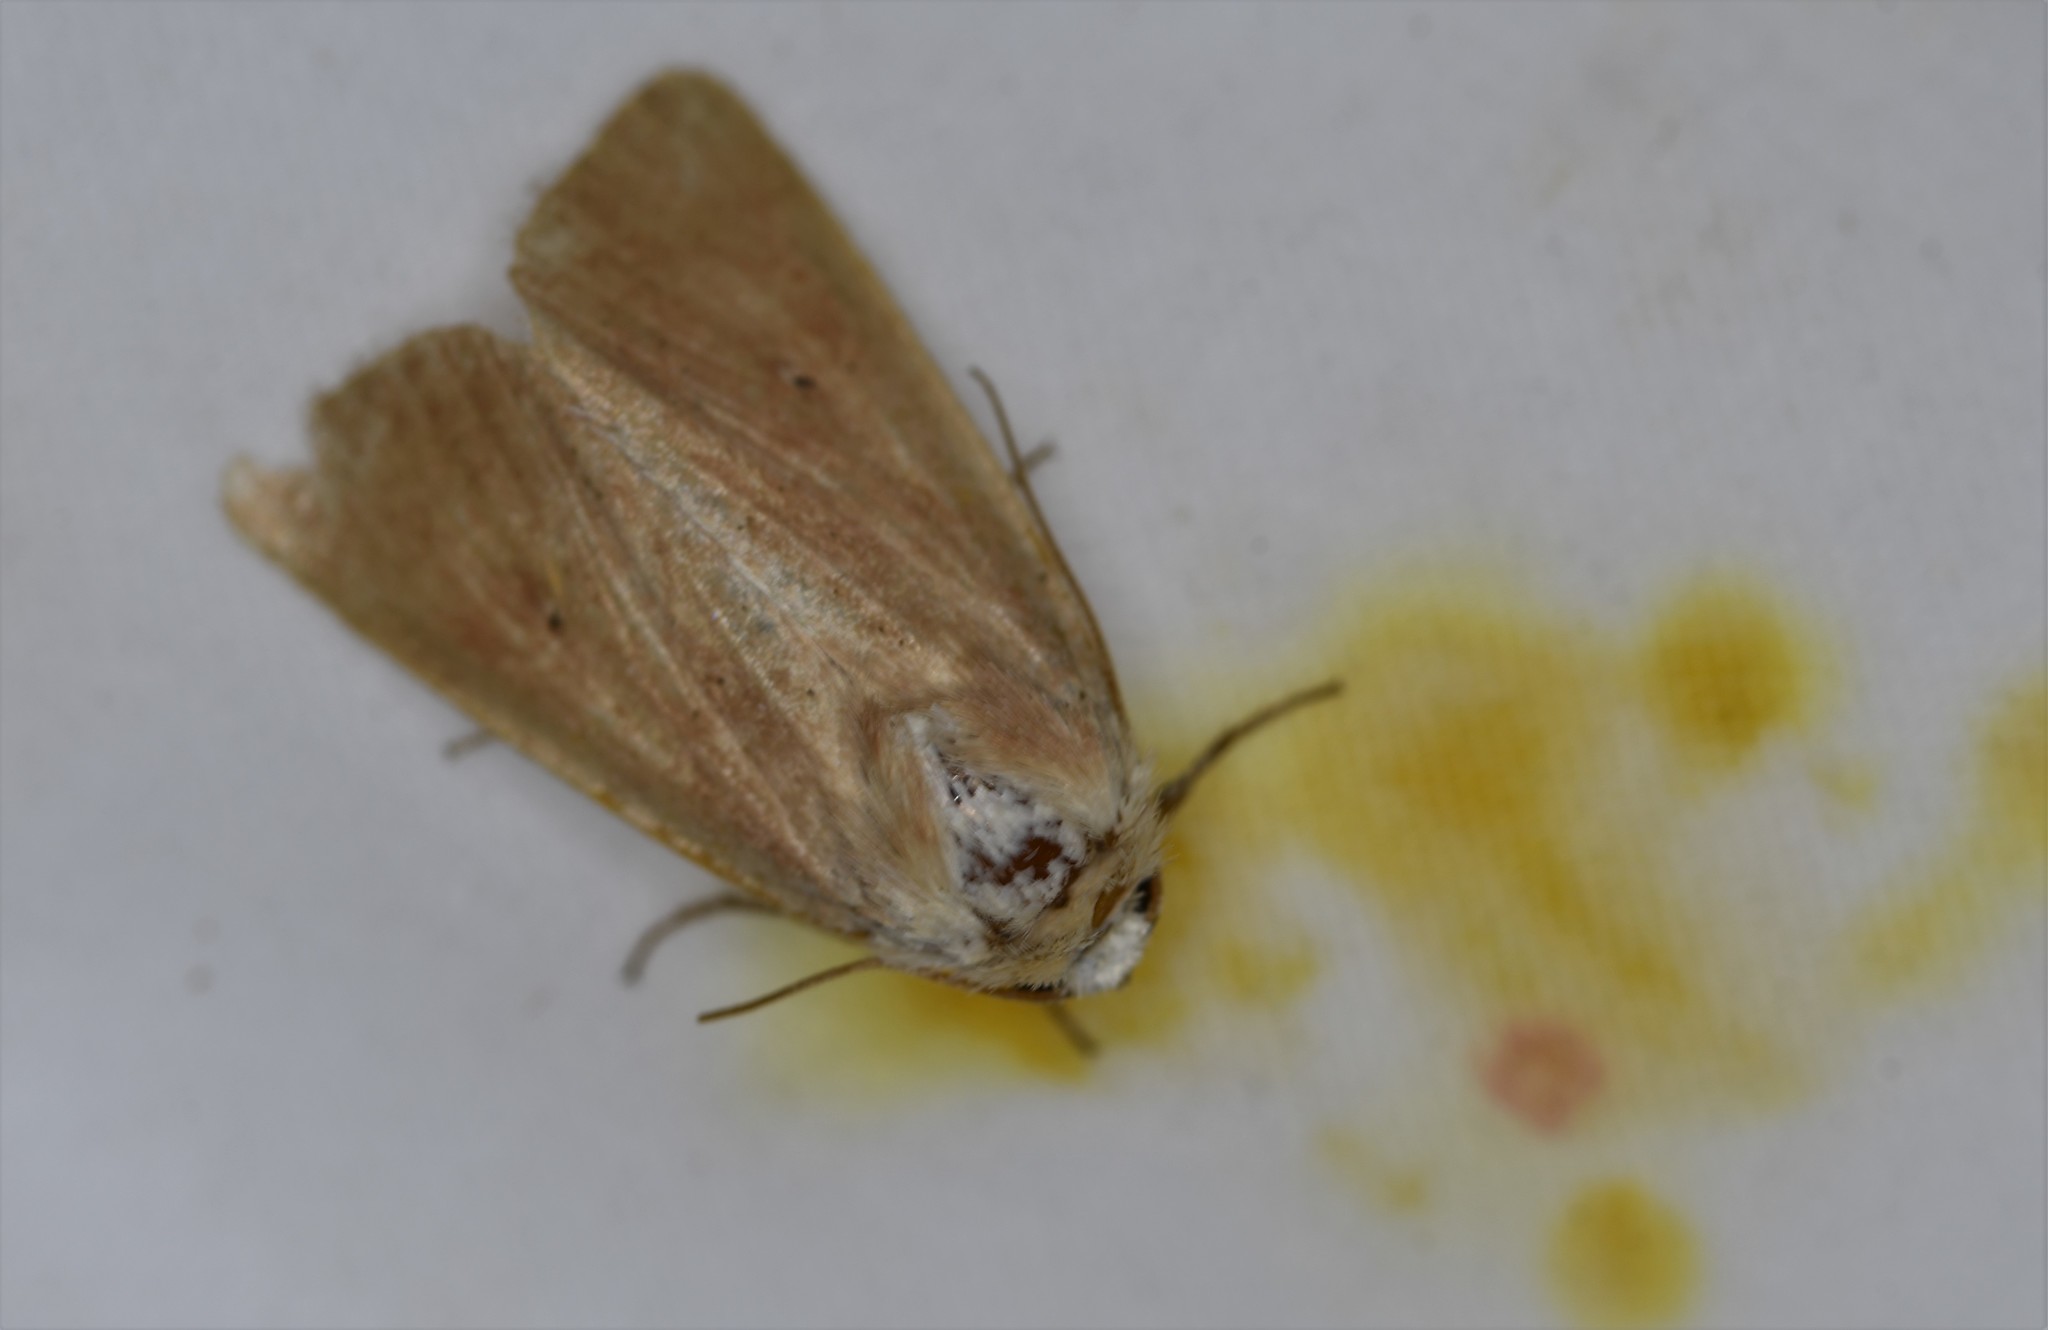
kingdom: Animalia
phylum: Arthropoda
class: Insecta
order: Lepidoptera
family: Noctuidae
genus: Mythimna
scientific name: Mythimna sicula
